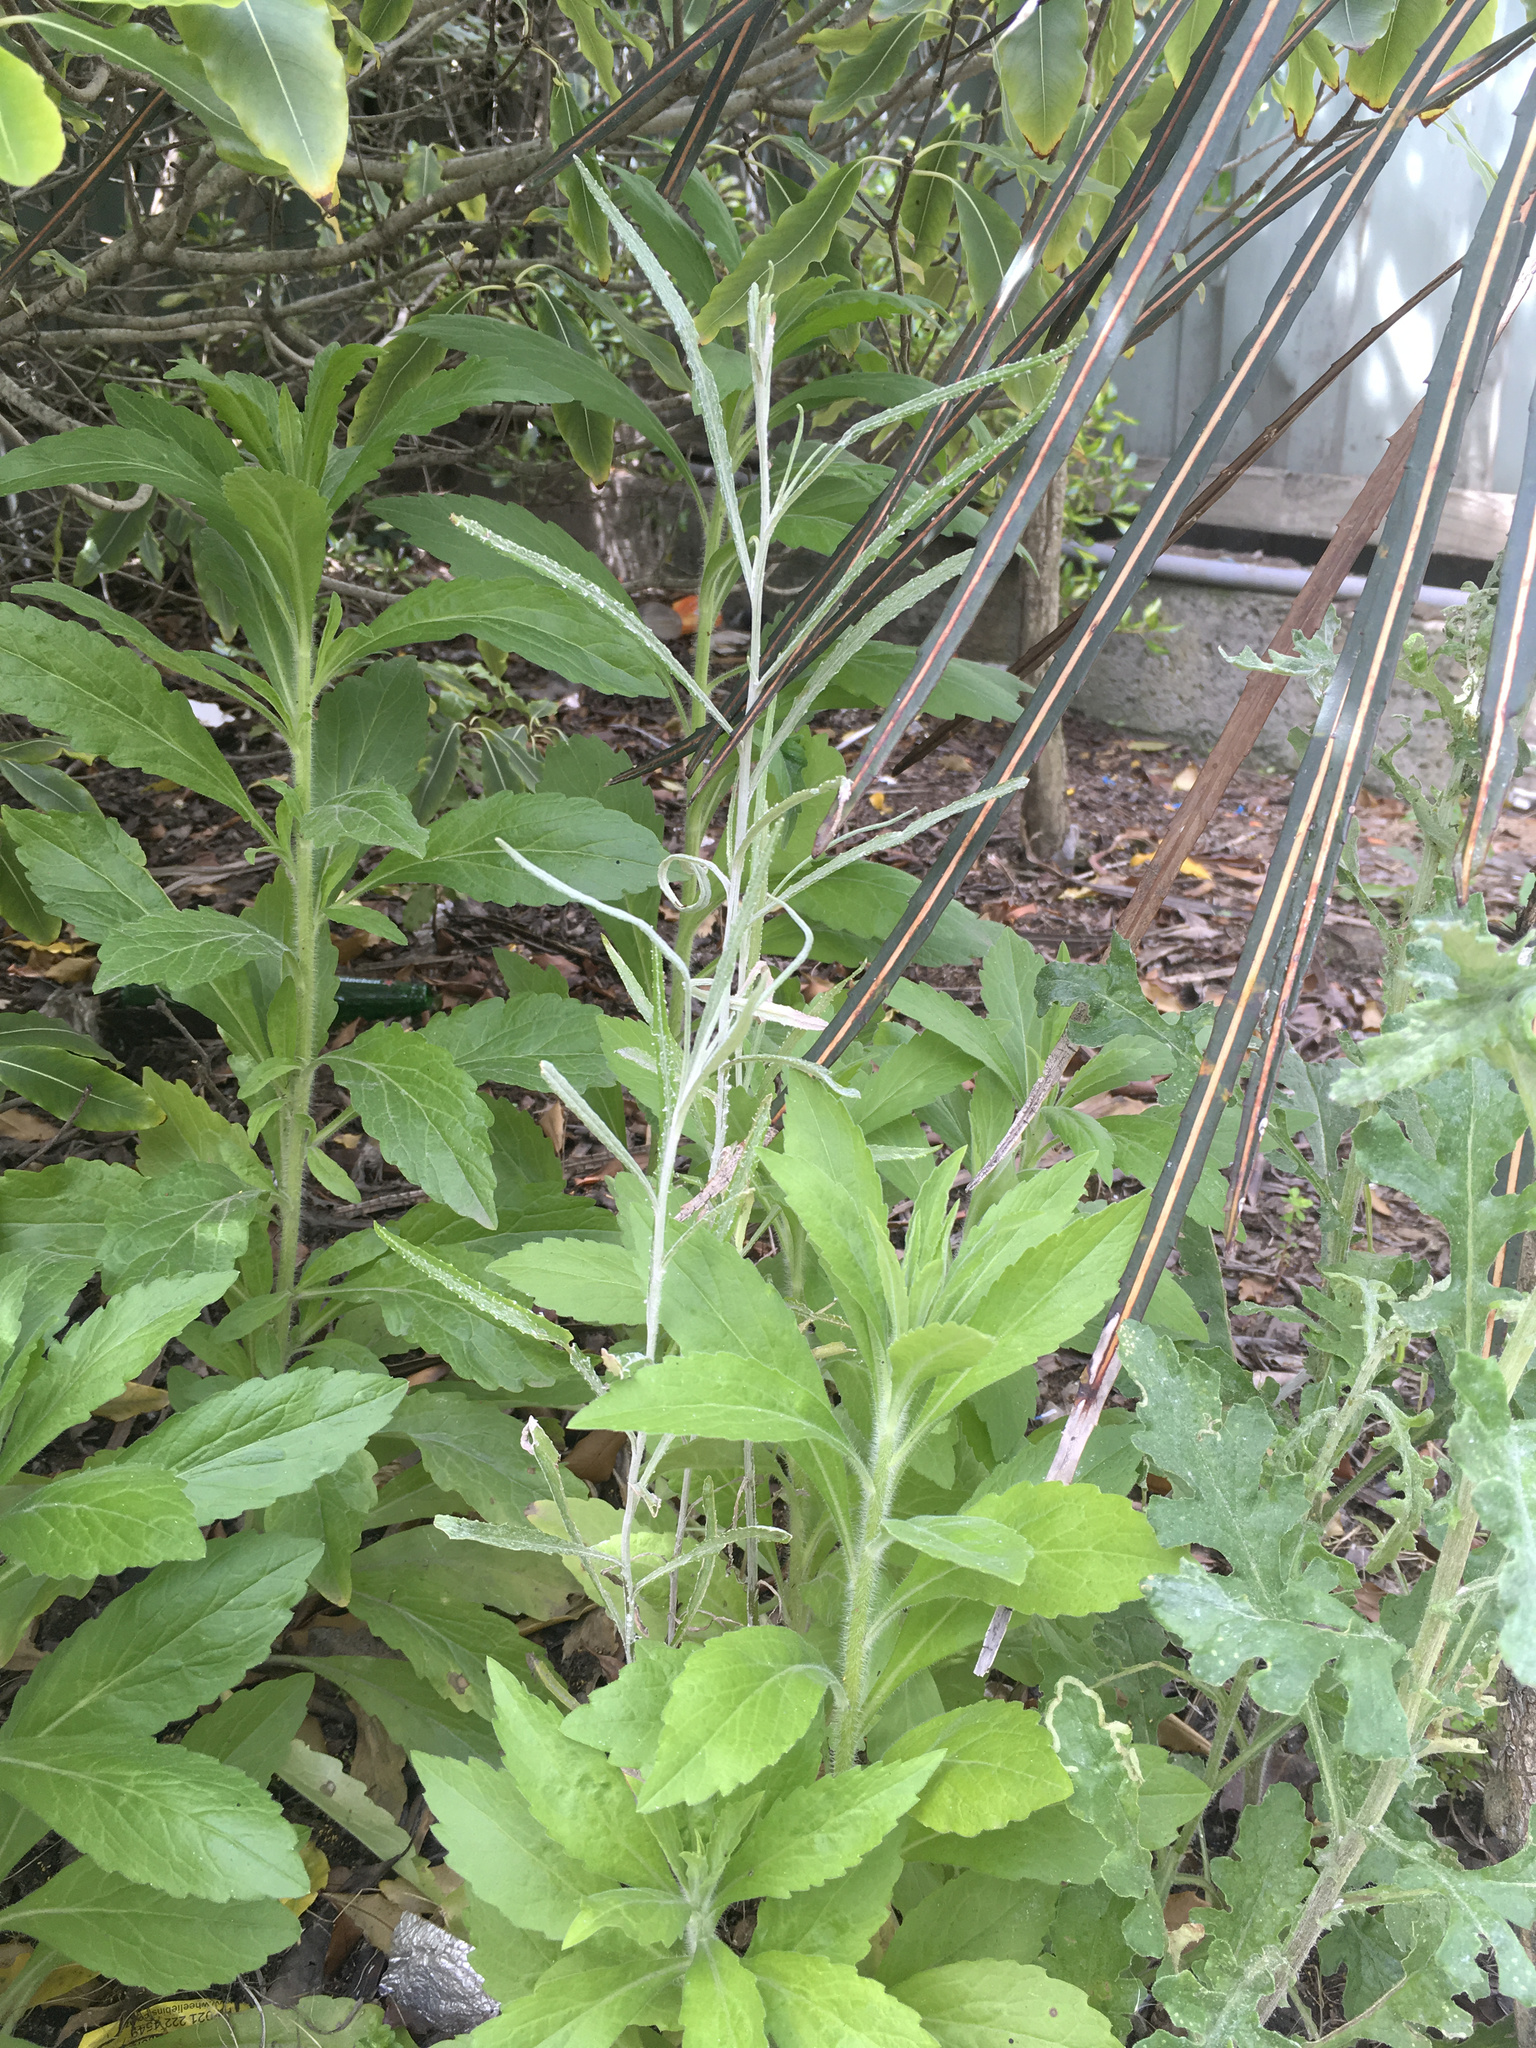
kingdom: Plantae
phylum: Tracheophyta
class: Magnoliopsida
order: Asterales
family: Asteraceae
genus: Senecio
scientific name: Senecio quadridentatus
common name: Cotton fireweed
